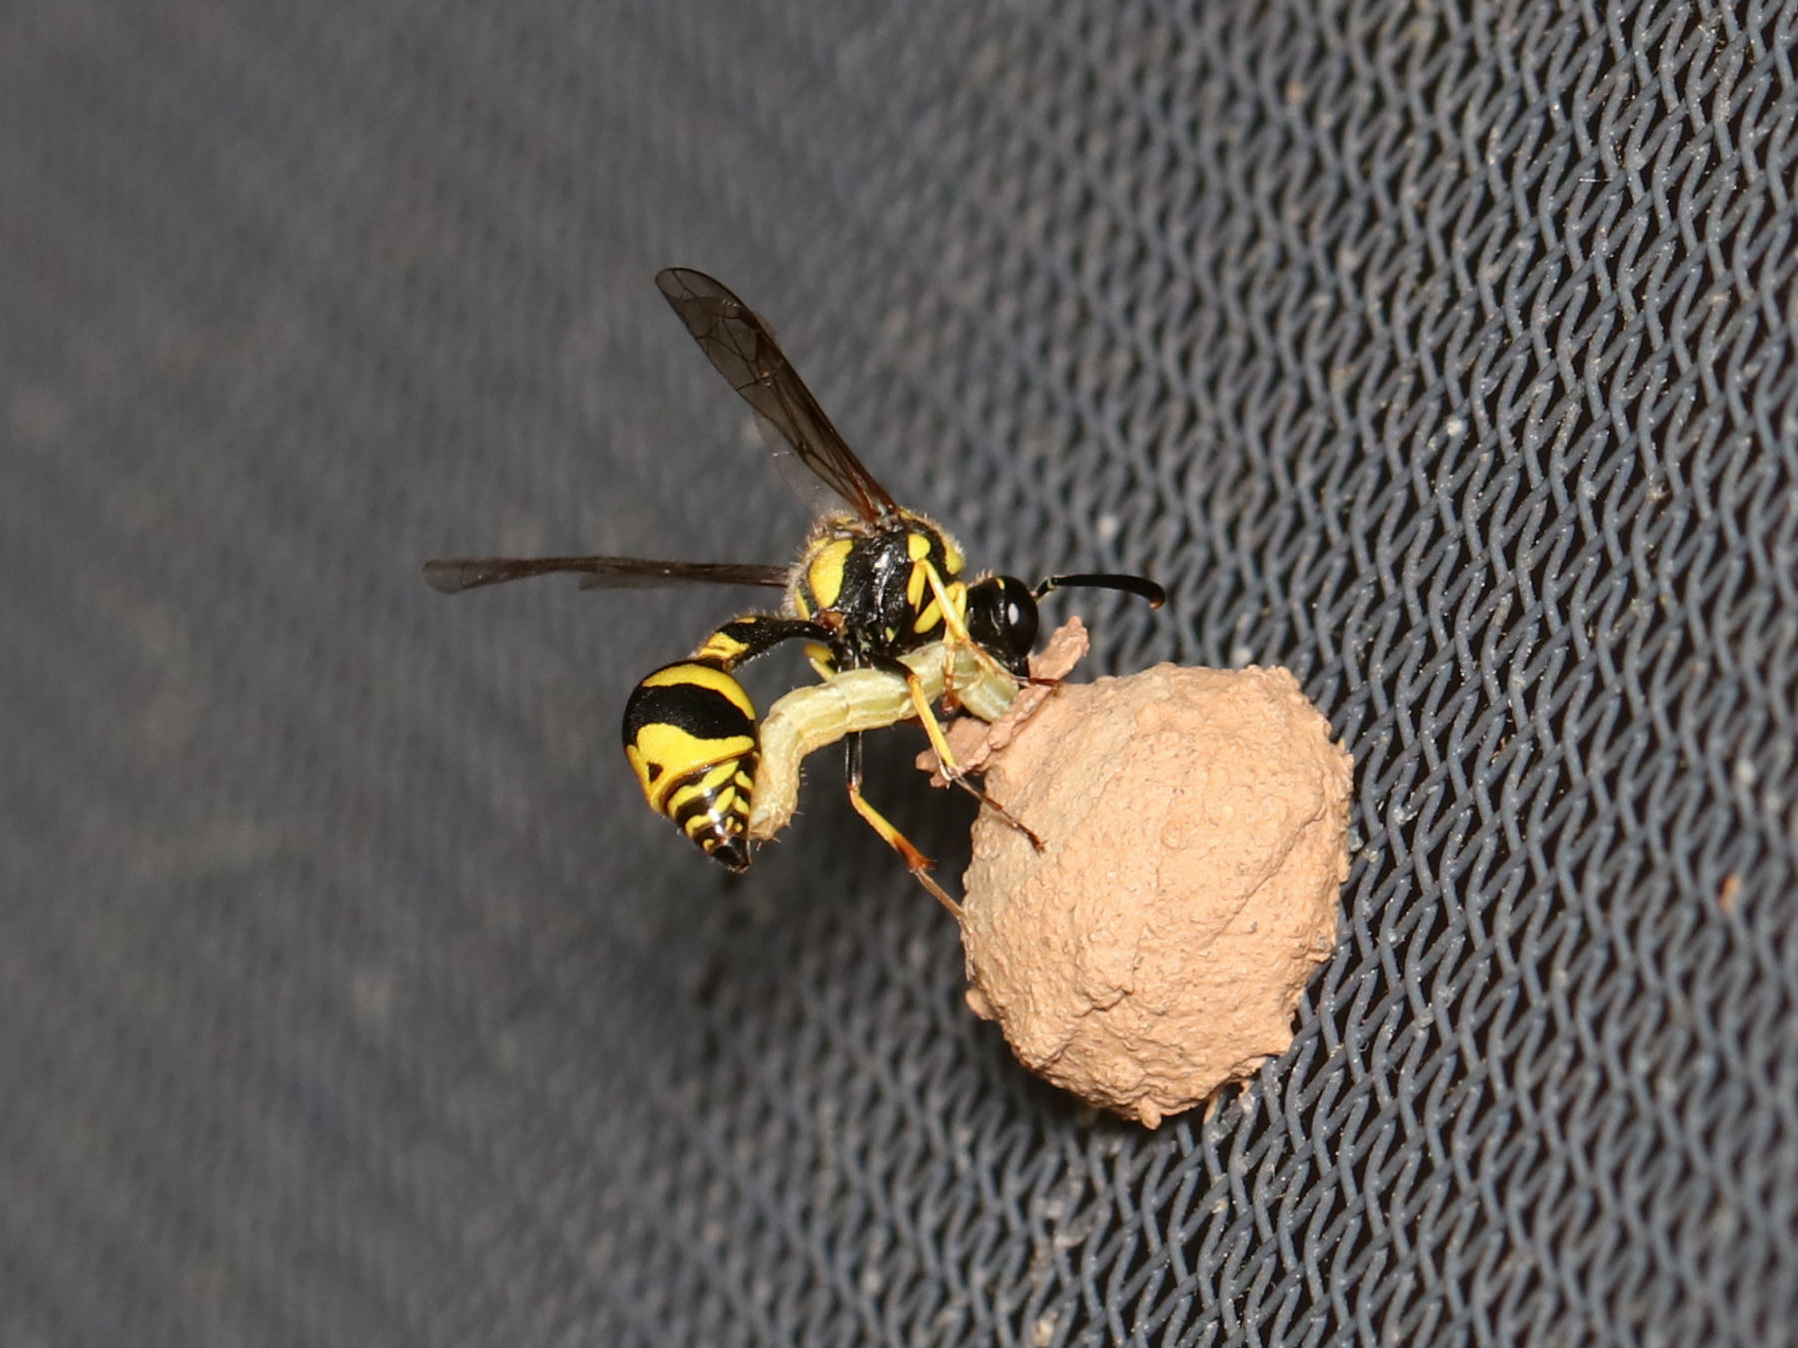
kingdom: Animalia
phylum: Arthropoda
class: Insecta
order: Hymenoptera
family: Vespidae
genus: Eumenes
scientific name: Eumenes mediterraneus
